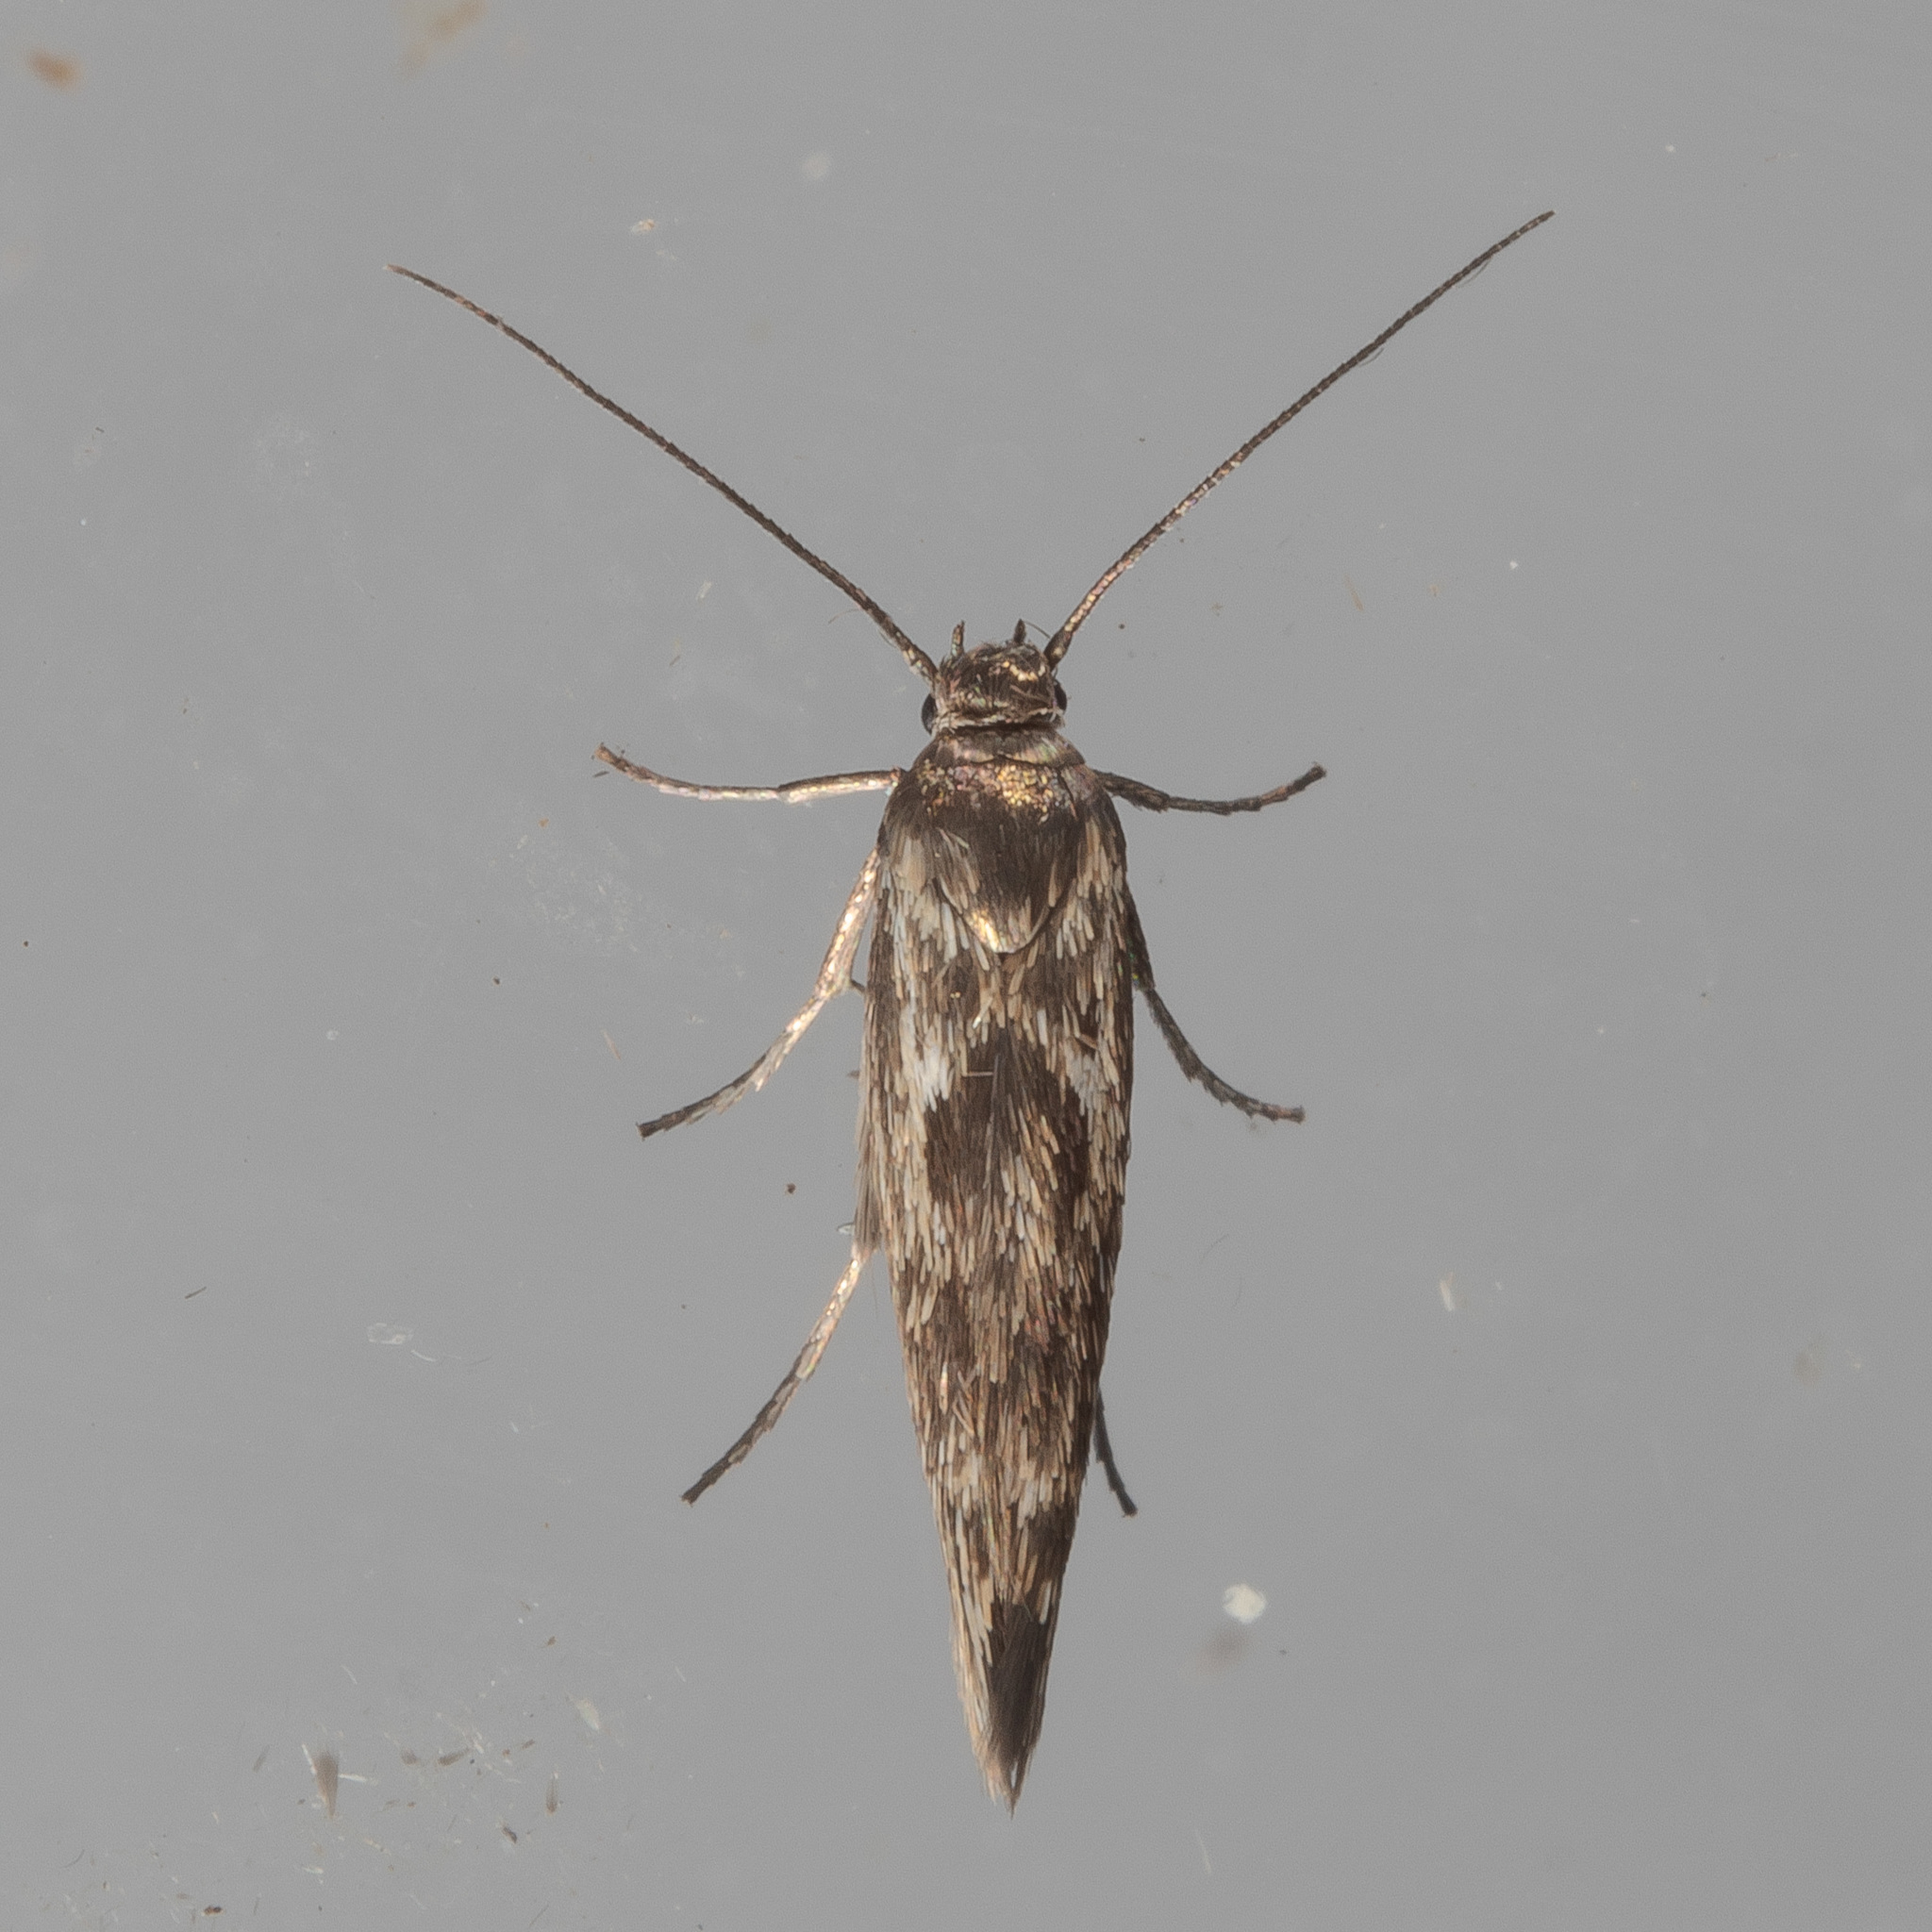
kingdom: Animalia
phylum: Arthropoda
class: Insecta
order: Lepidoptera
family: Scythrididae
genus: Scythris
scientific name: Scythris trivinctella
